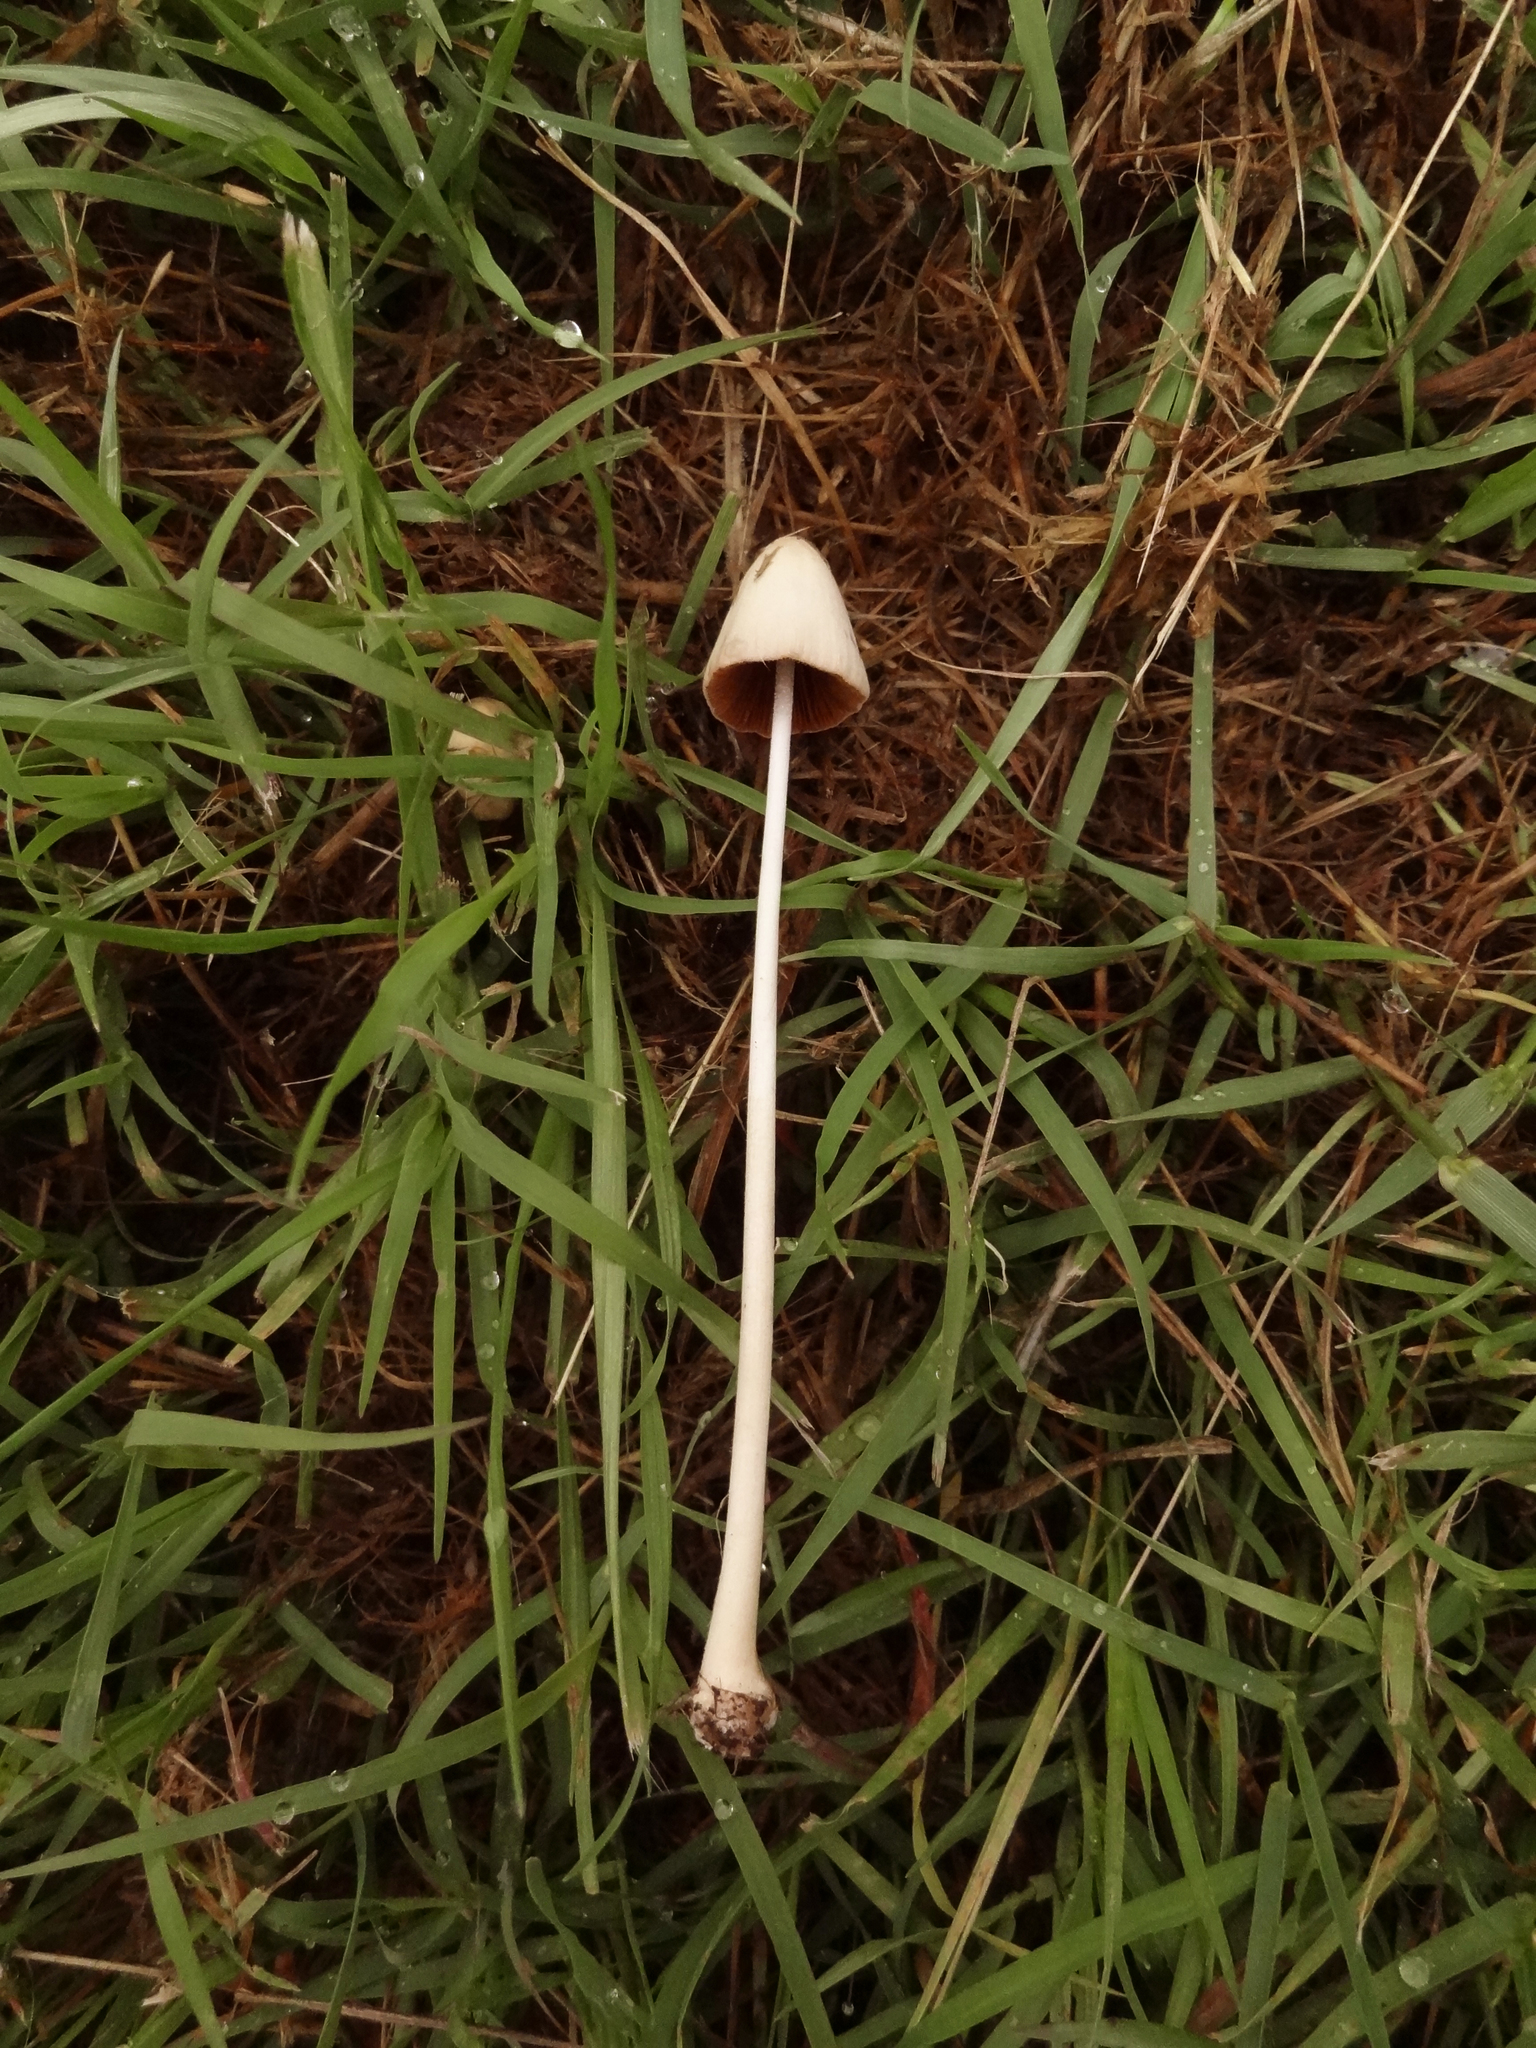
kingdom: Fungi
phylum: Basidiomycota
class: Agaricomycetes
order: Agaricales
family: Bolbitiaceae
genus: Conocybe
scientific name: Conocybe apala
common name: Milky conecap
